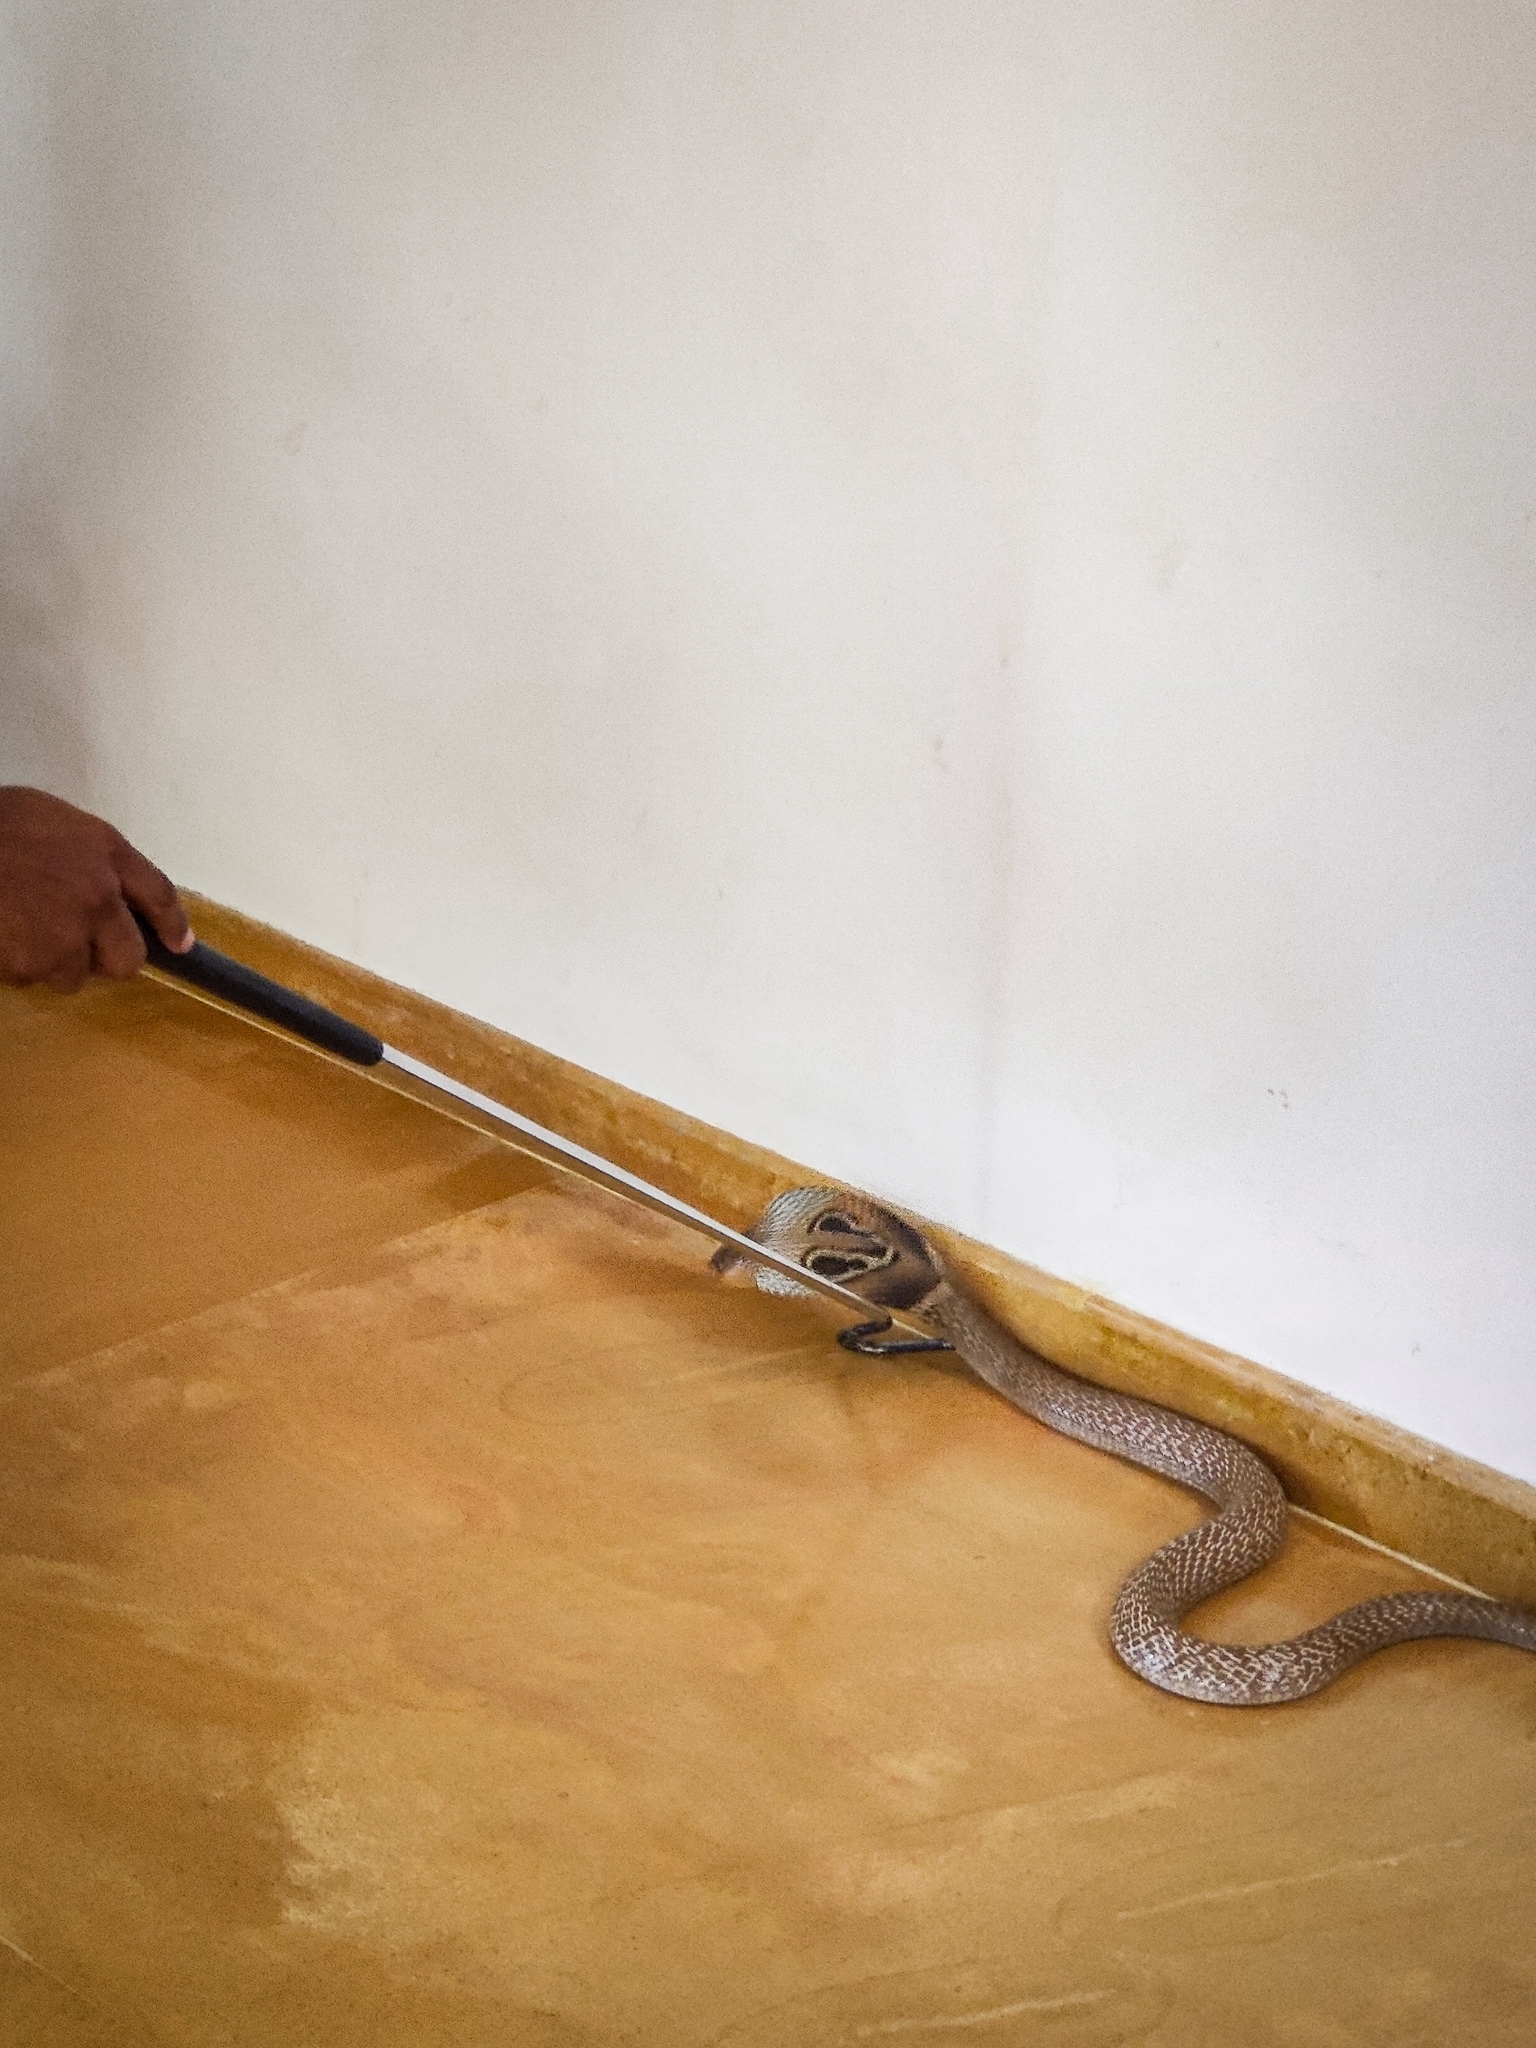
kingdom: Animalia
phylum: Chordata
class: Squamata
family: Elapidae
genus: Naja
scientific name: Naja naja
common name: Indian cobra
